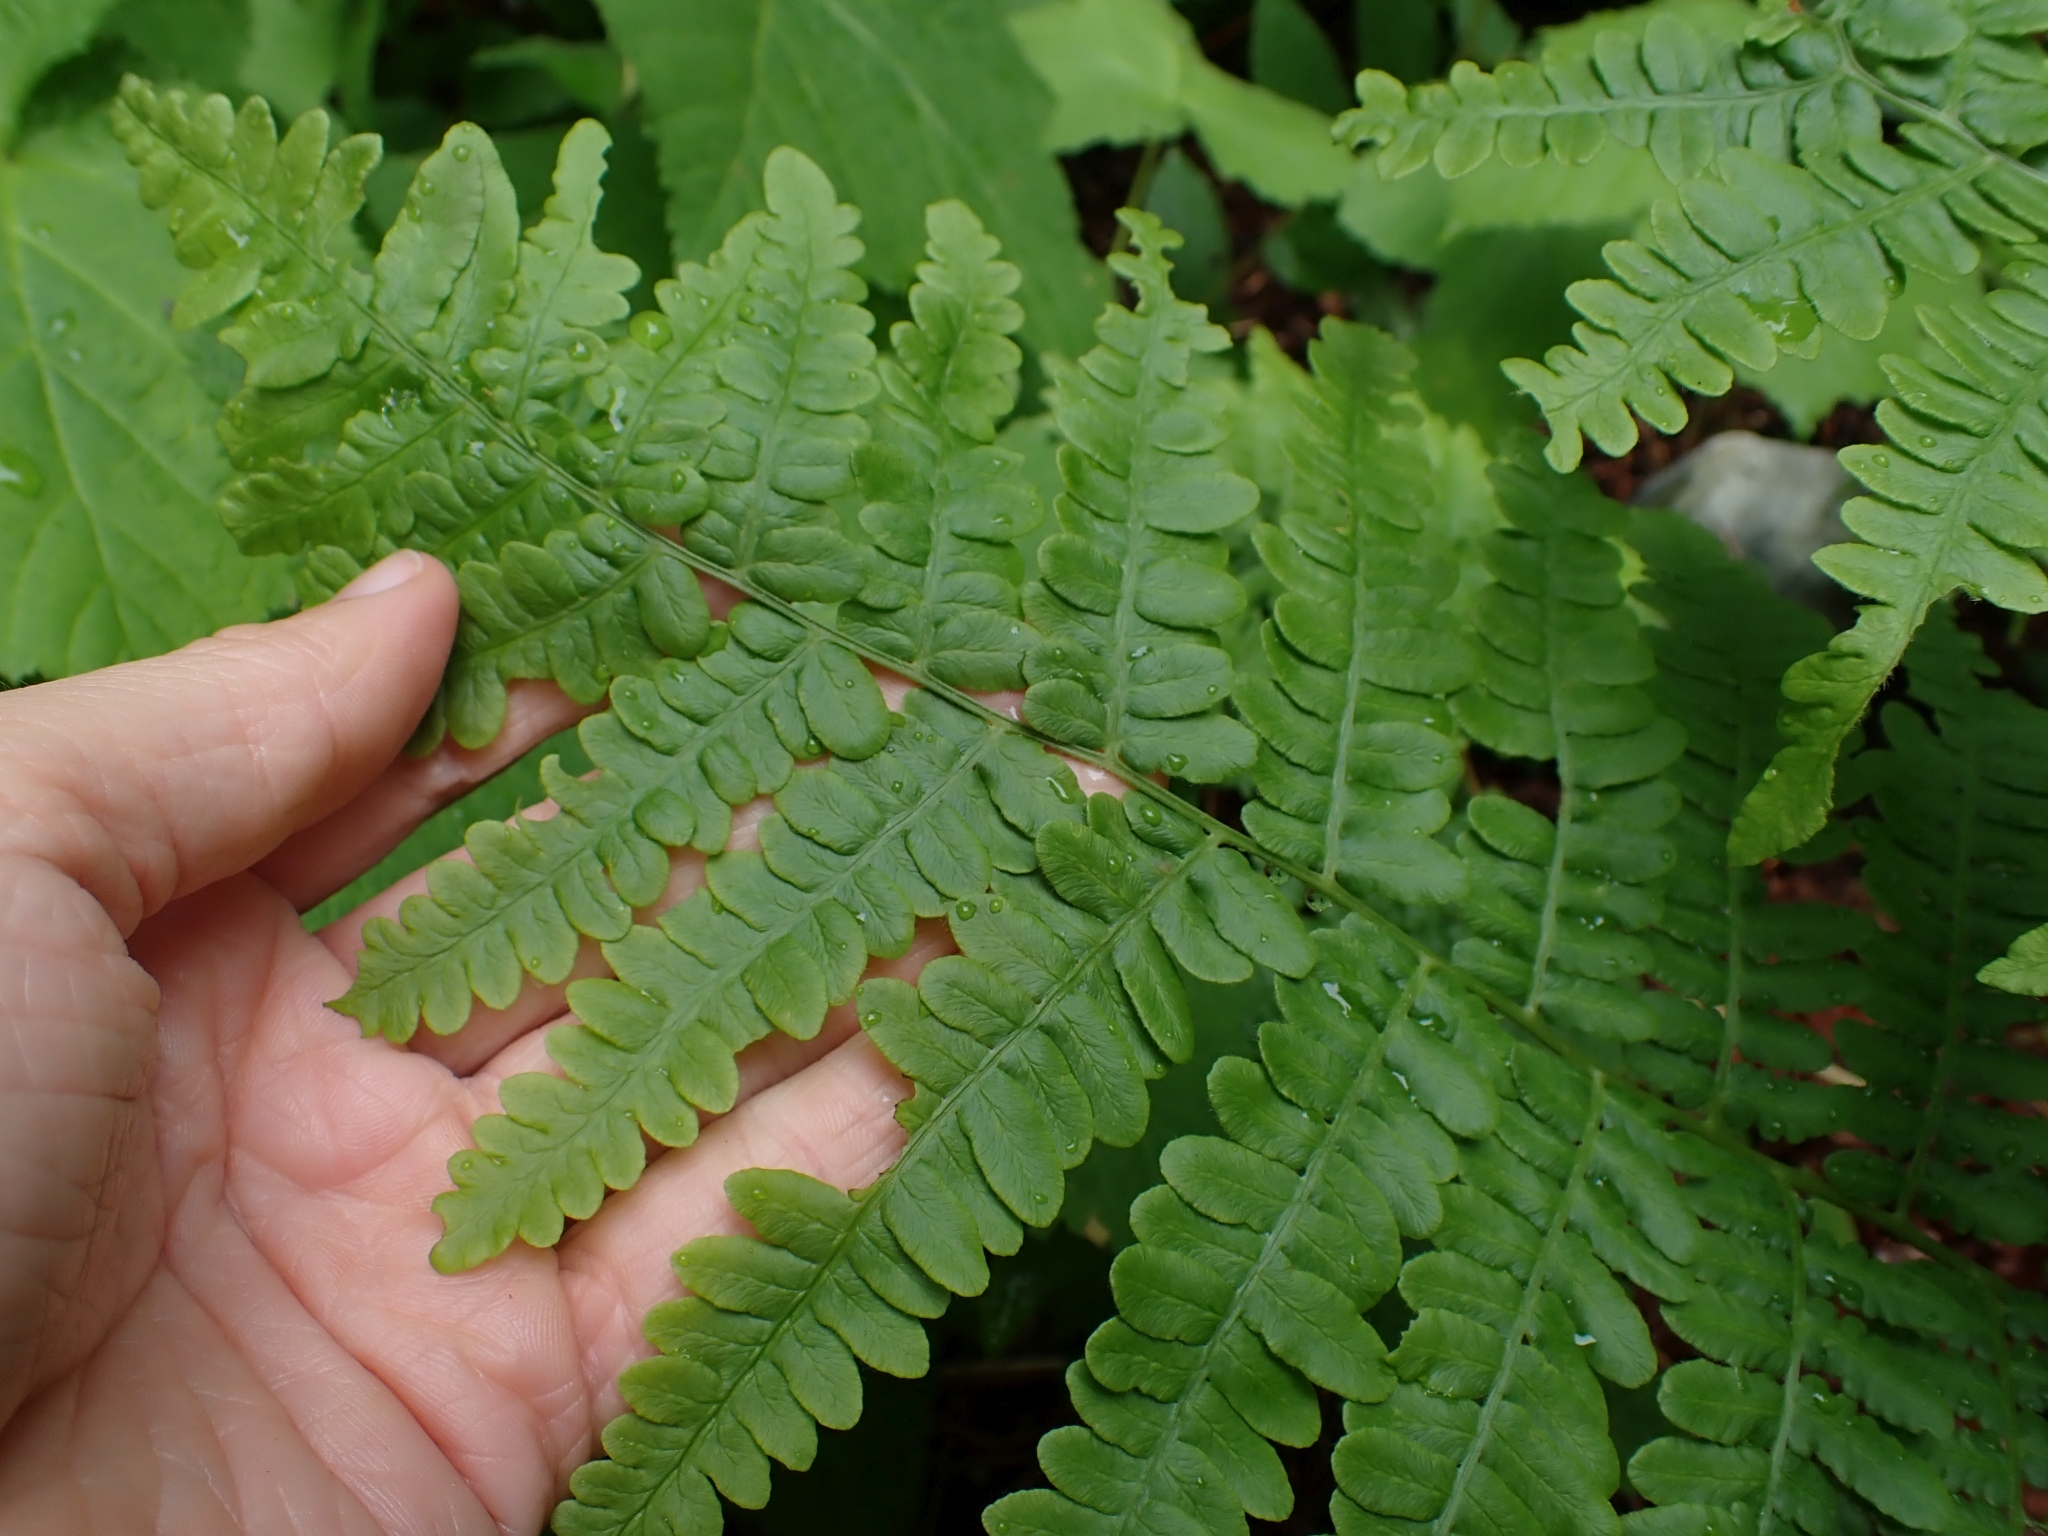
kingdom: Plantae
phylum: Tracheophyta
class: Polypodiopsida
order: Polypodiales
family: Dennstaedtiaceae
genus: Pteridium
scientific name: Pteridium aquilinum
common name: Bracken
